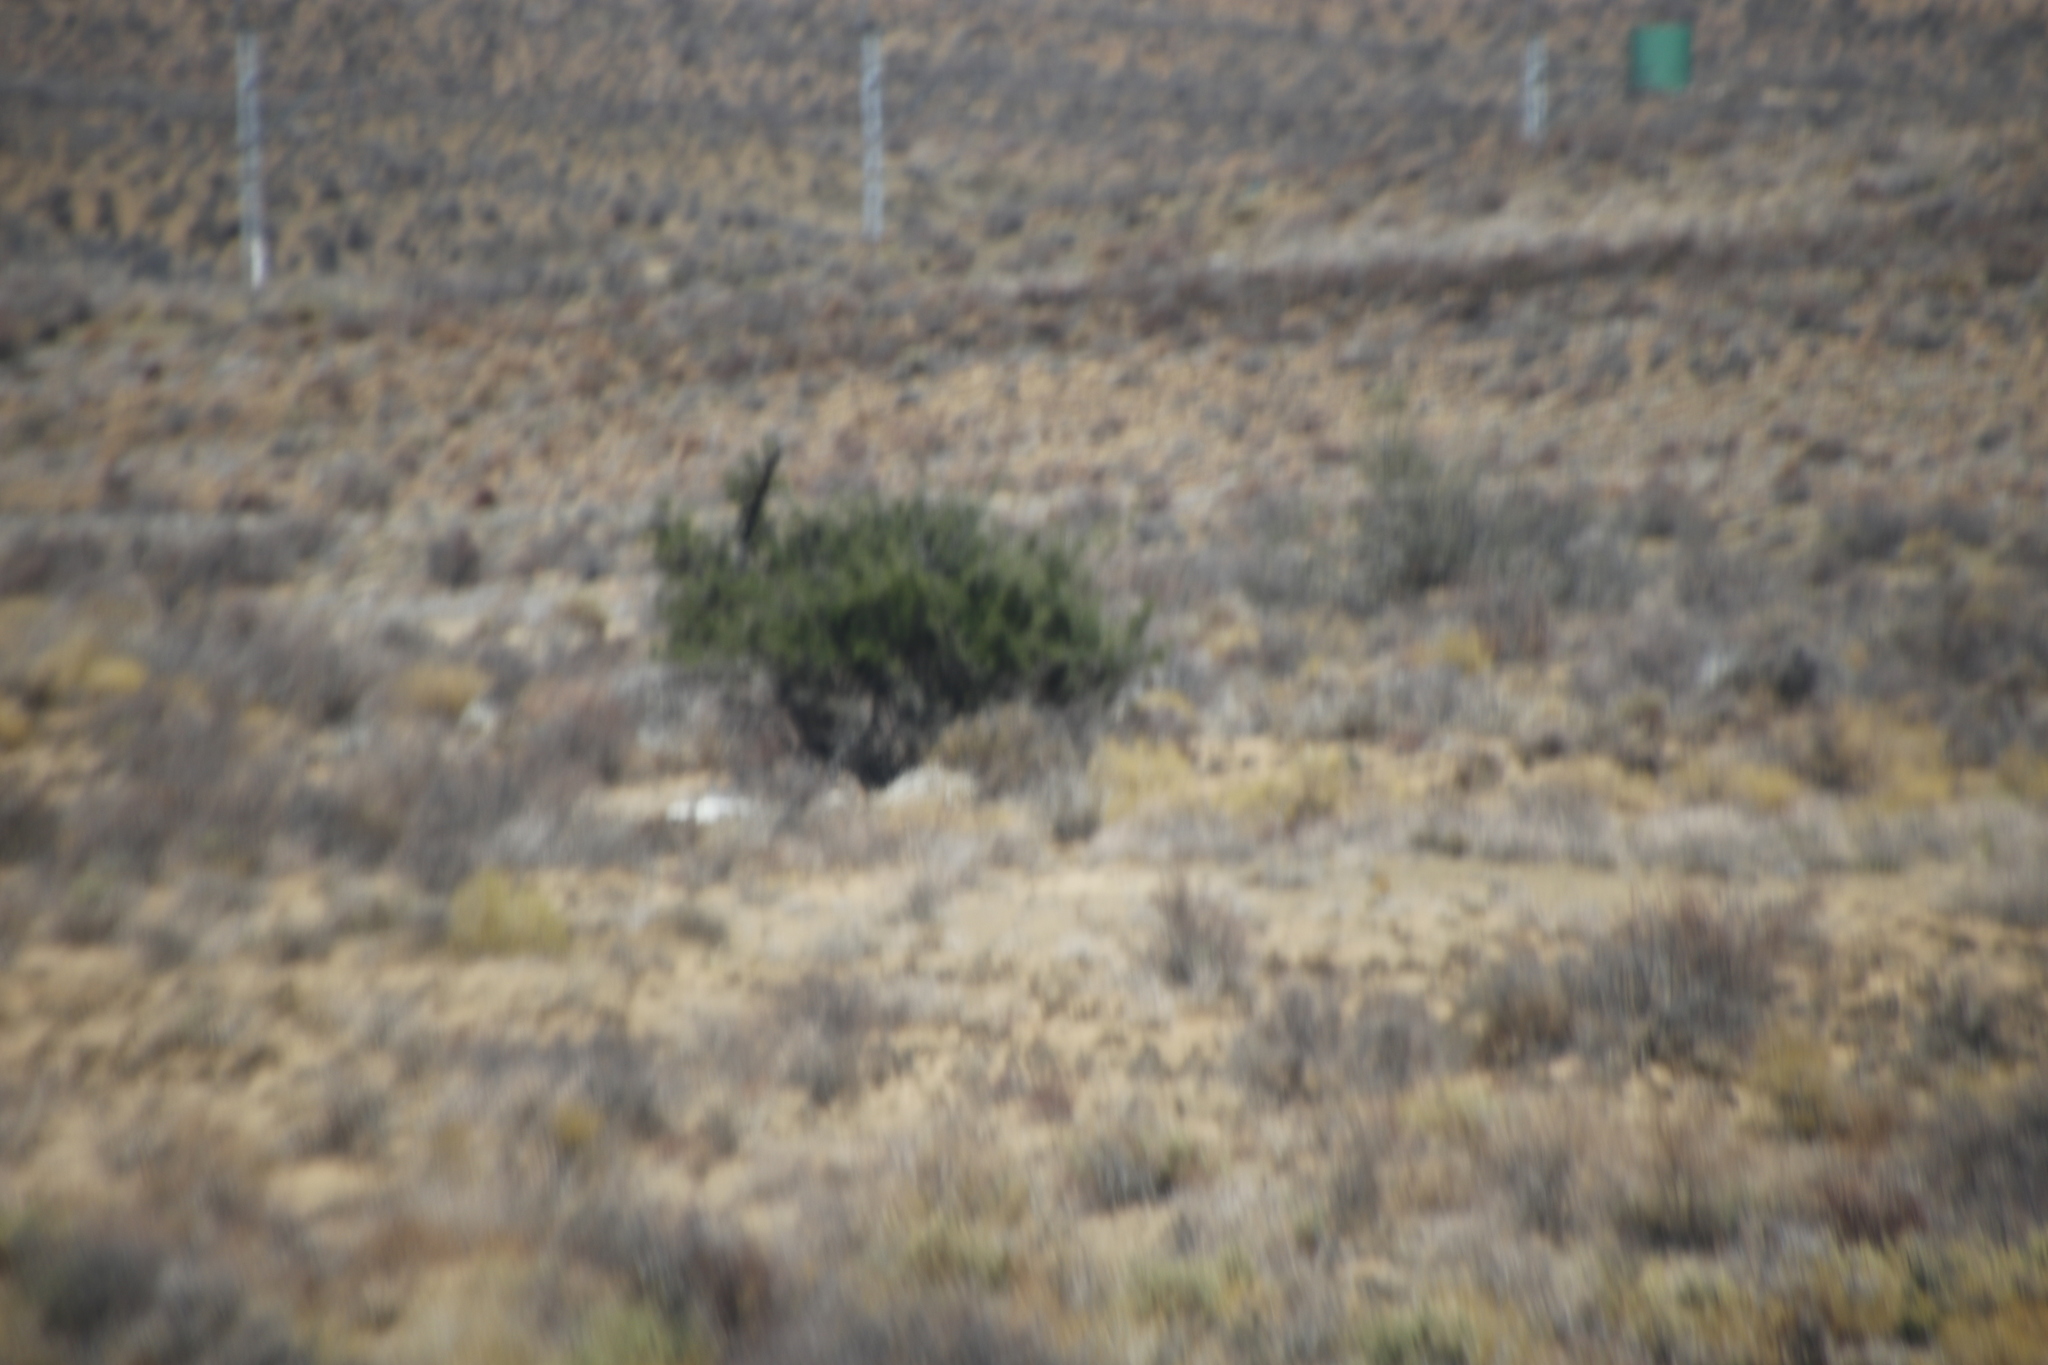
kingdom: Plantae
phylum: Tracheophyta
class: Magnoliopsida
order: Fabales
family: Fabaceae
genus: Vachellia
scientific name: Vachellia karroo
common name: Sweet thorn
